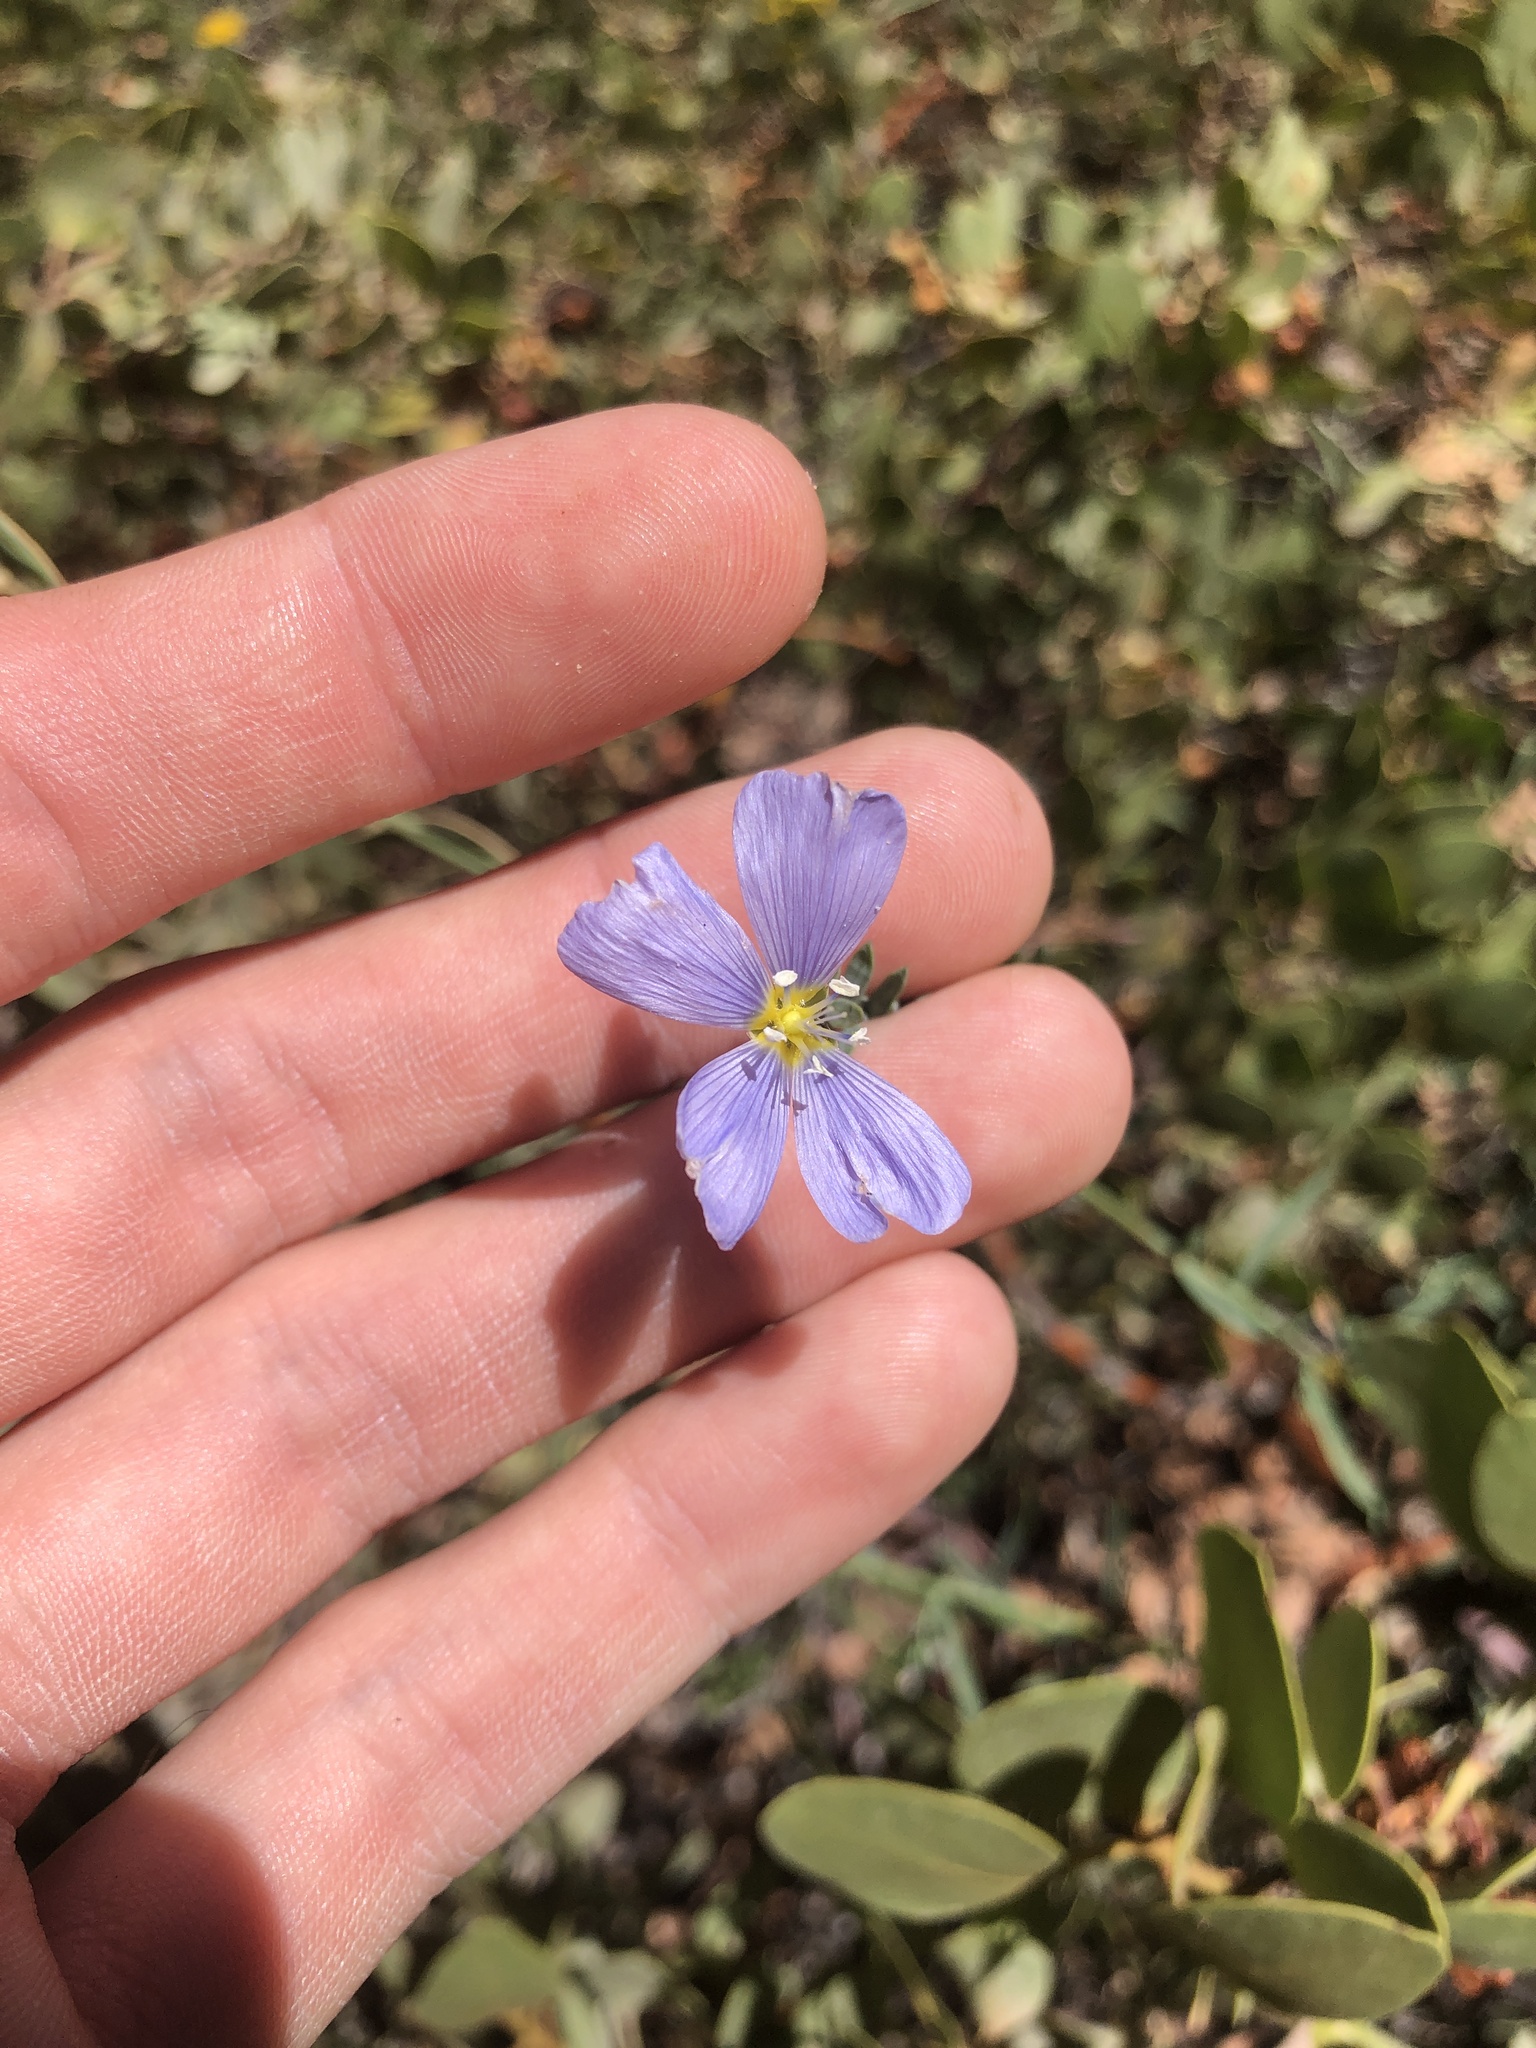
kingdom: Plantae
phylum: Tracheophyta
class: Magnoliopsida
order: Malpighiales
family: Linaceae
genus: Linum
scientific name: Linum lewisii
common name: Prairie flax
